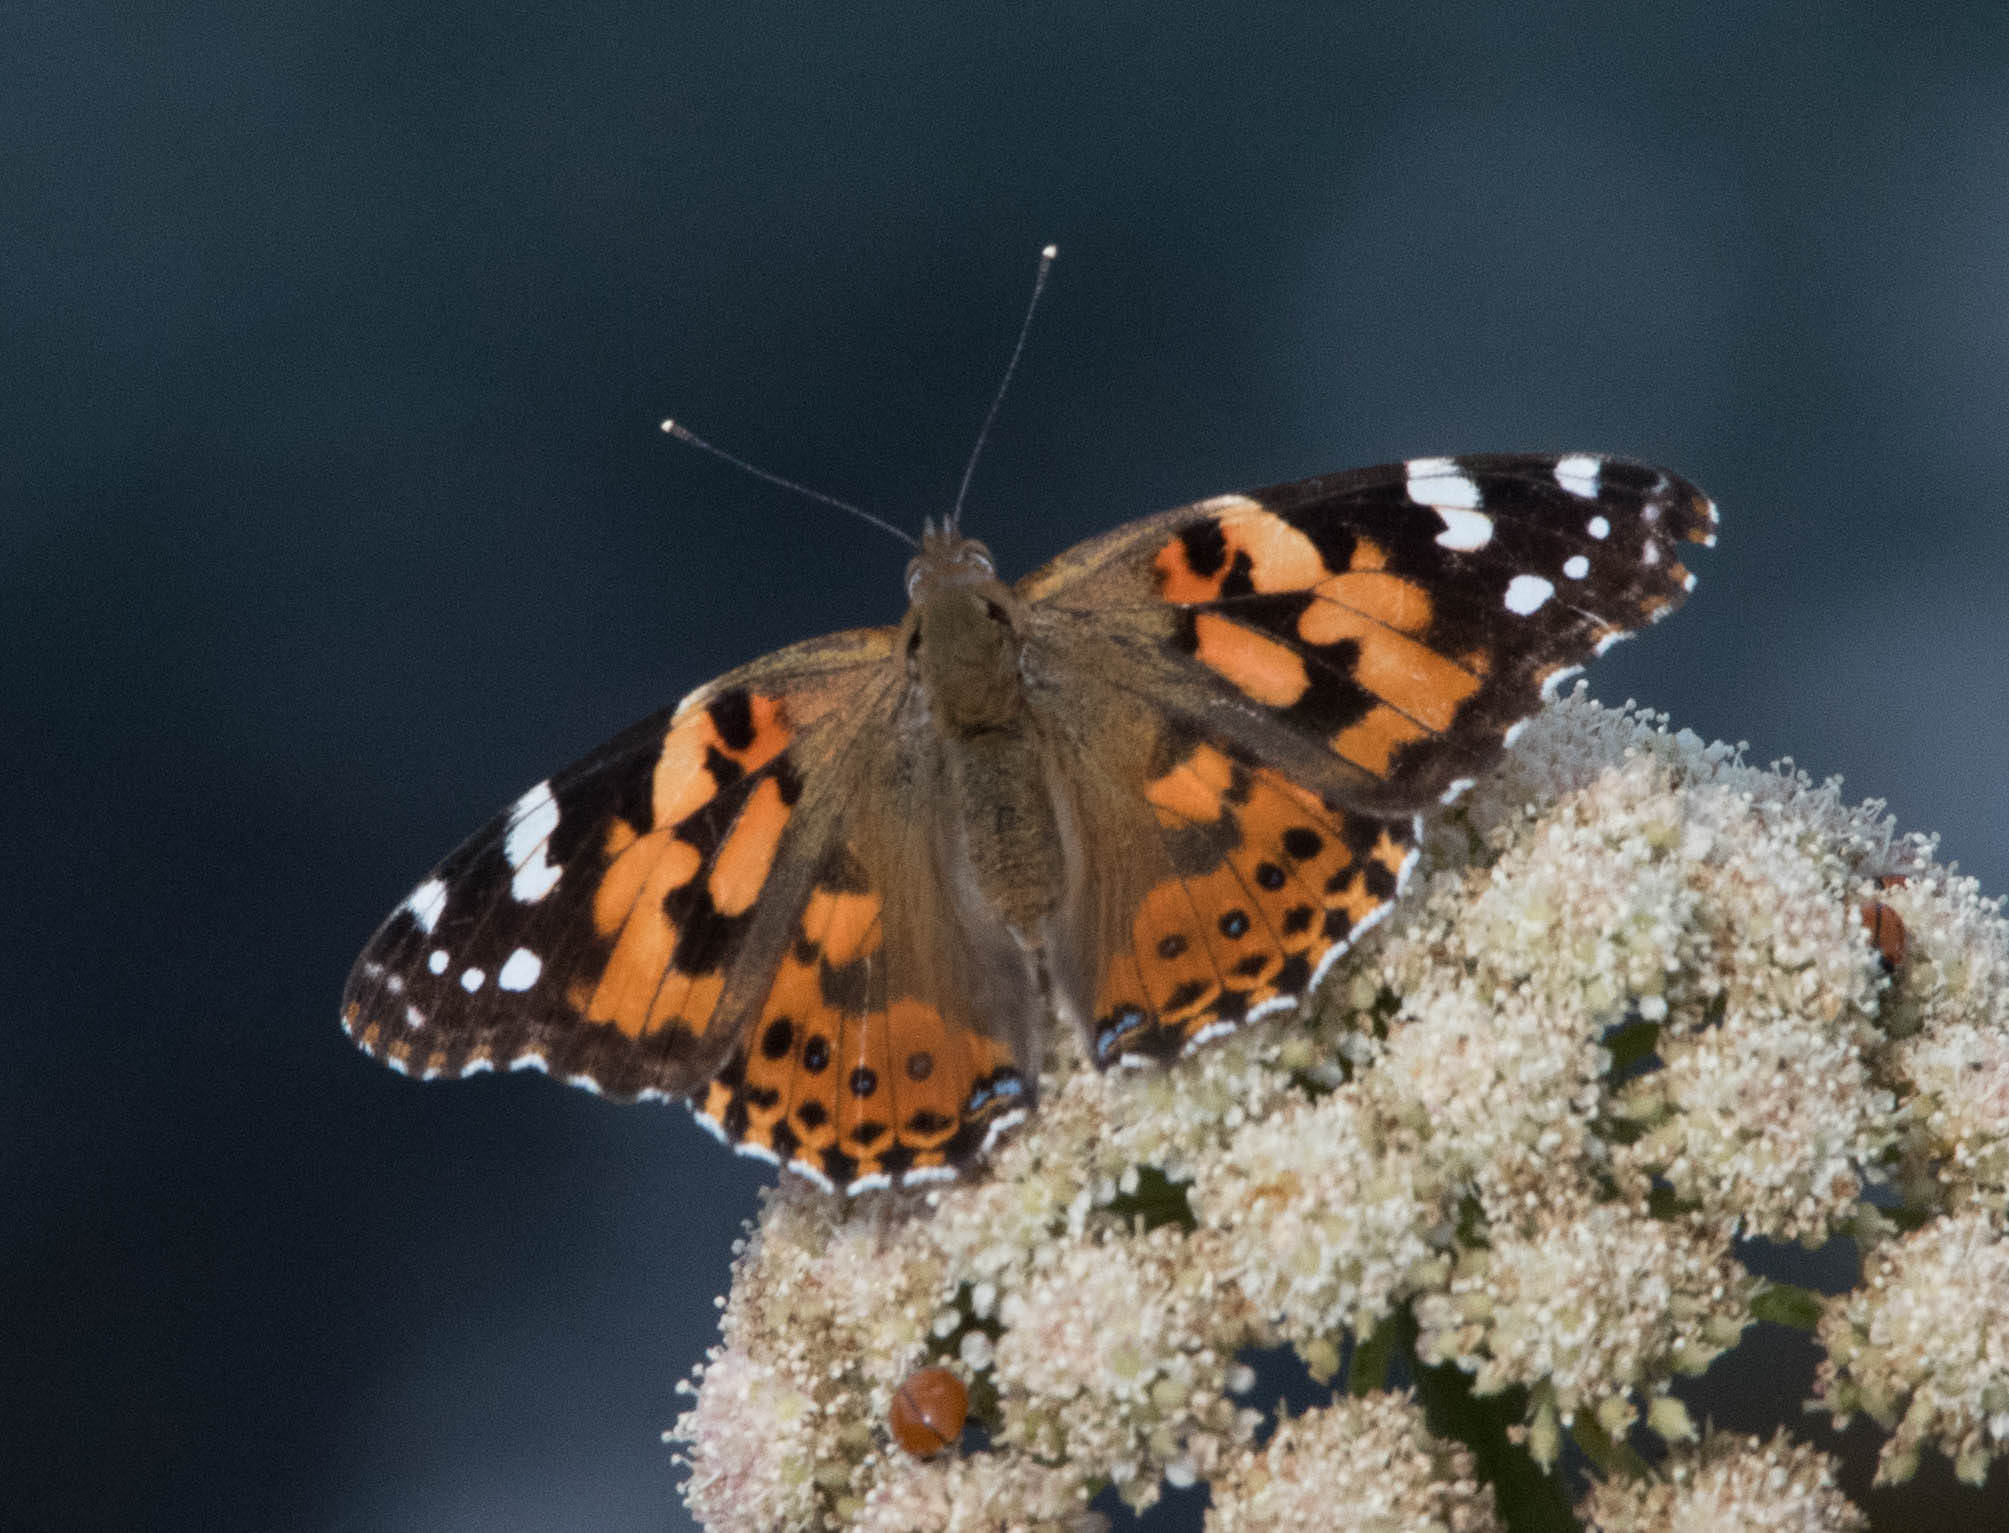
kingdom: Animalia
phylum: Arthropoda
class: Insecta
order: Lepidoptera
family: Nymphalidae
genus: Vanessa
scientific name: Vanessa cardui
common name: Painted lady
